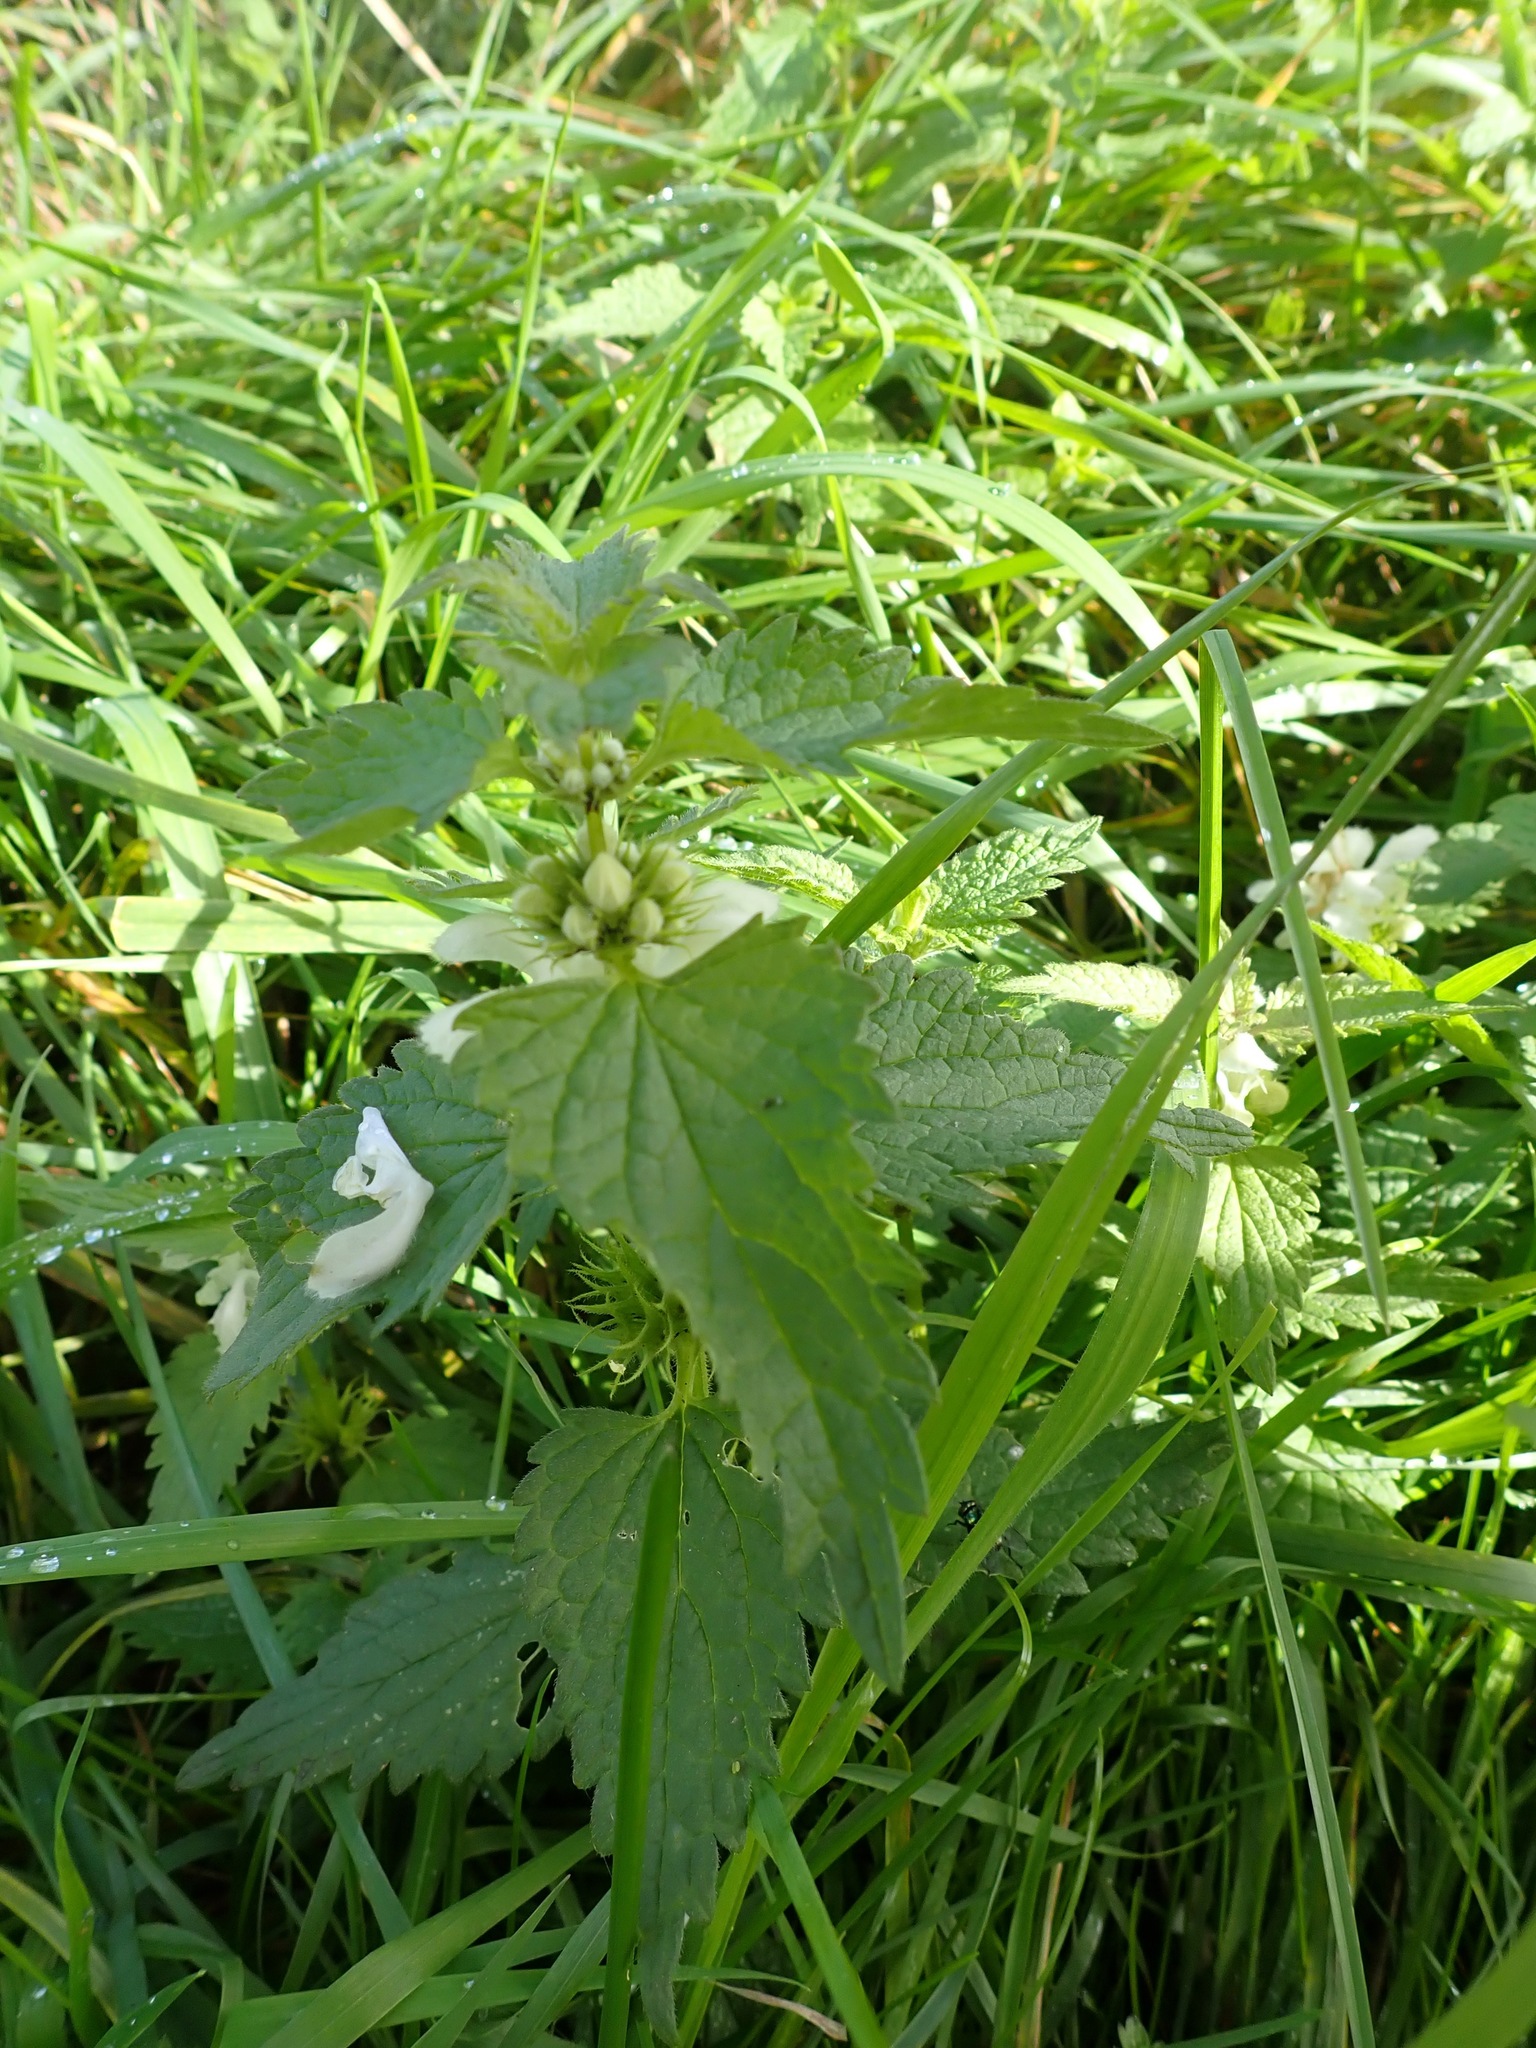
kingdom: Plantae
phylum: Tracheophyta
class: Magnoliopsida
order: Lamiales
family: Lamiaceae
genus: Lamium
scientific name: Lamium album
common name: White dead-nettle
